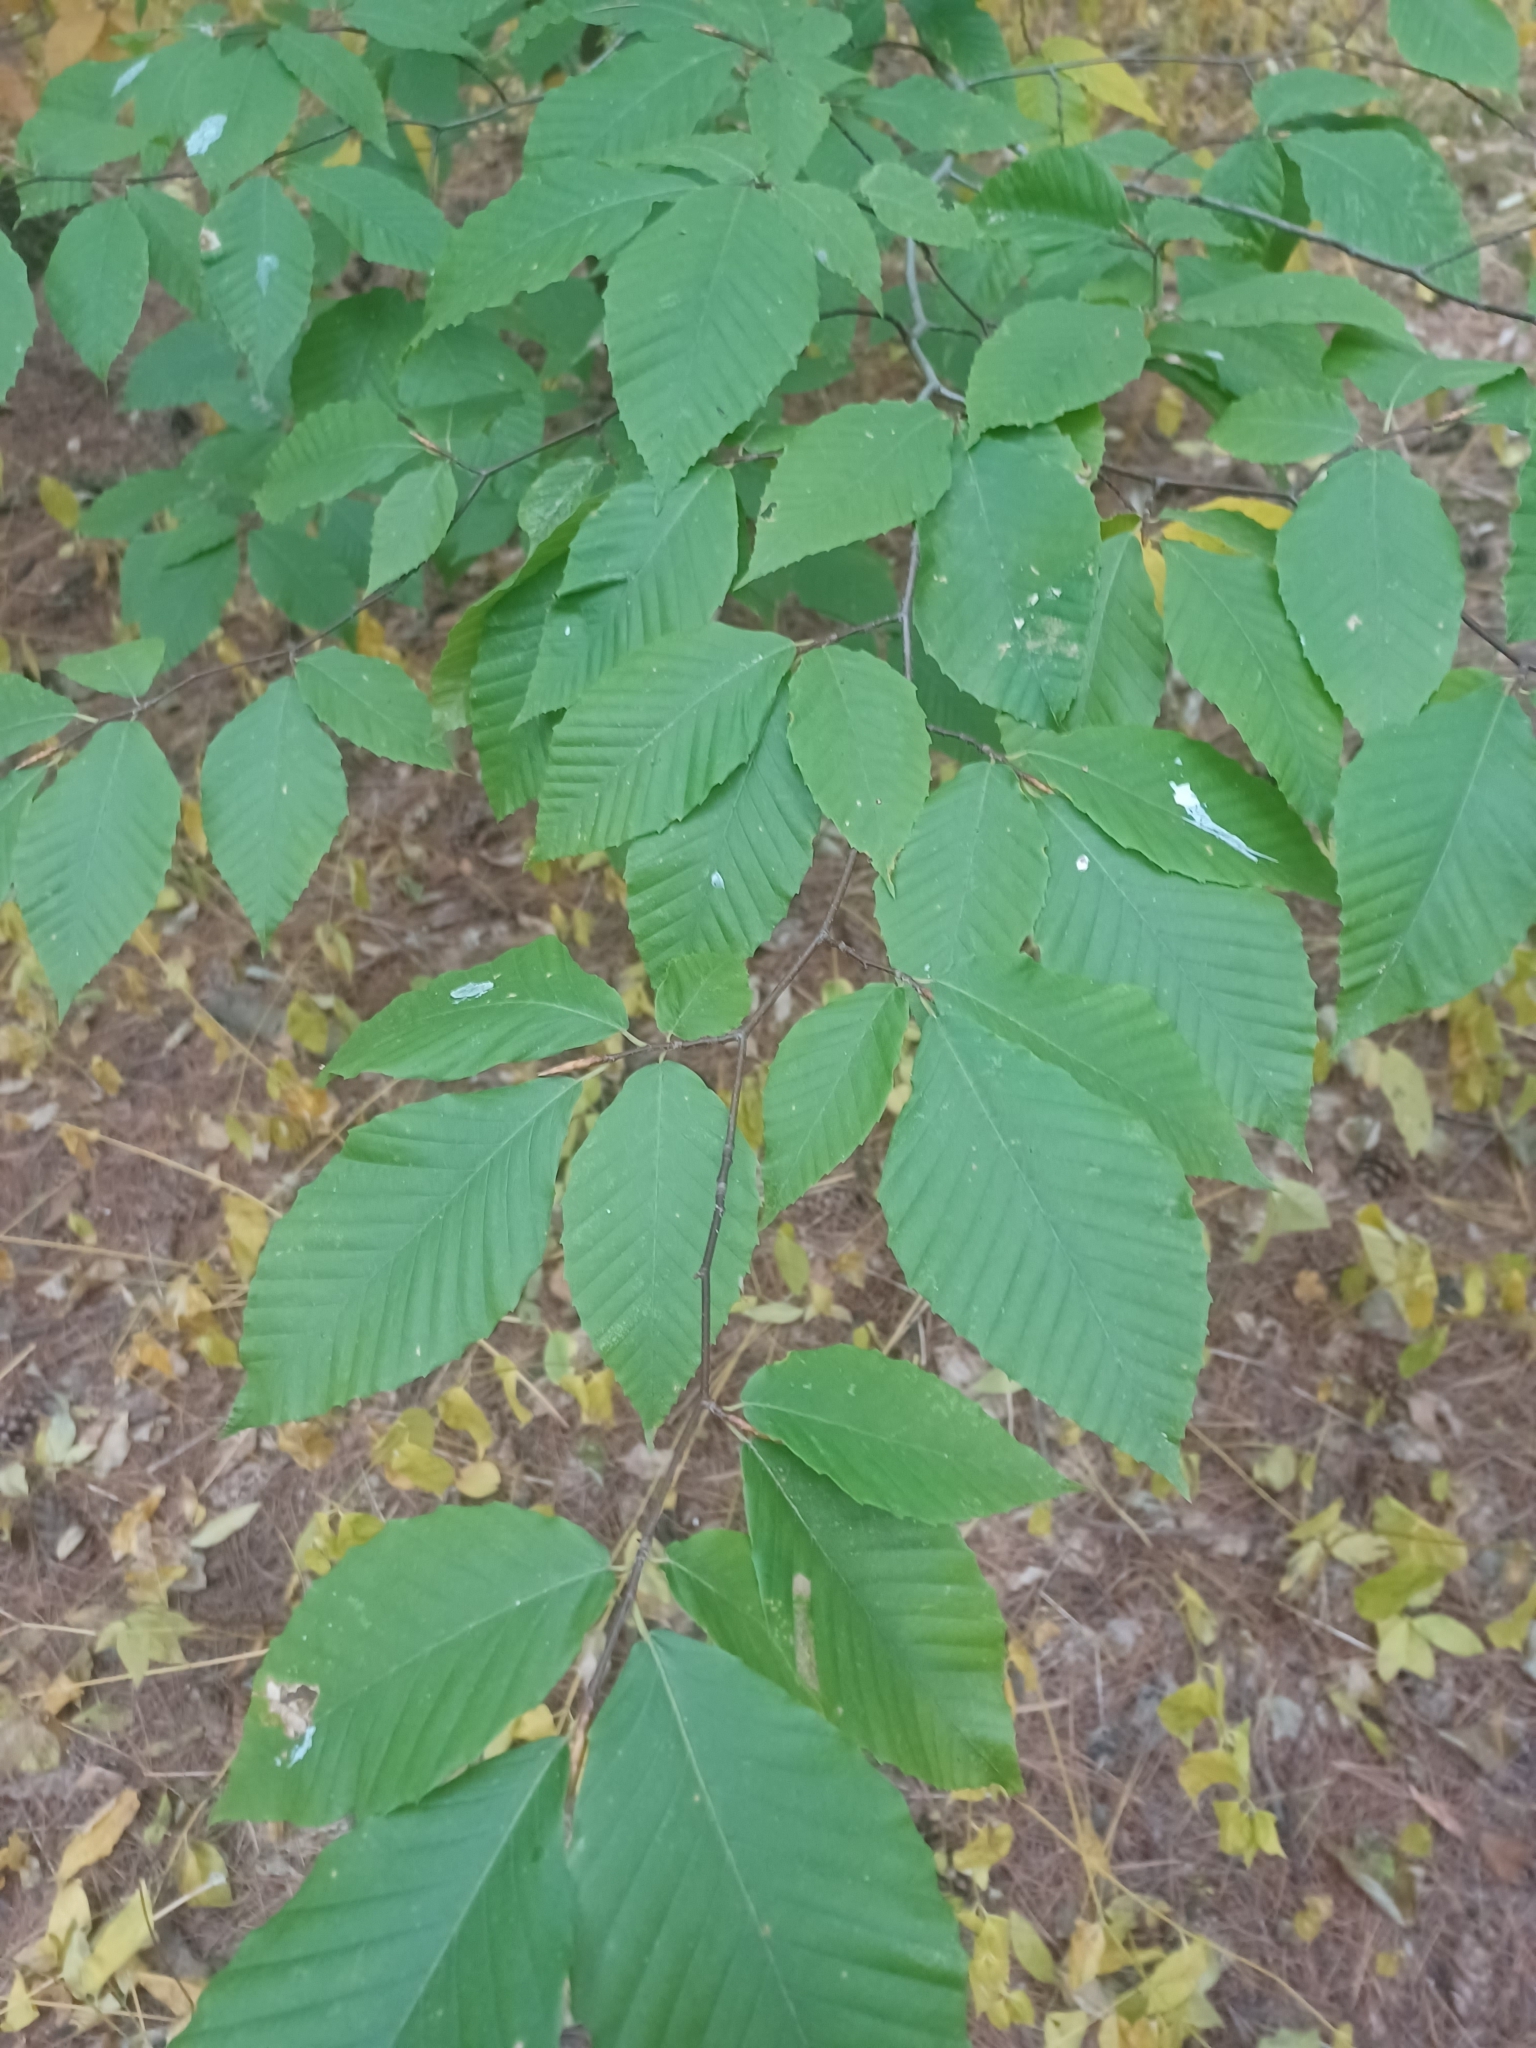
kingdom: Plantae
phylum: Tracheophyta
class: Magnoliopsida
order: Fagales
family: Fagaceae
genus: Fagus
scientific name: Fagus grandifolia
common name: American beech
